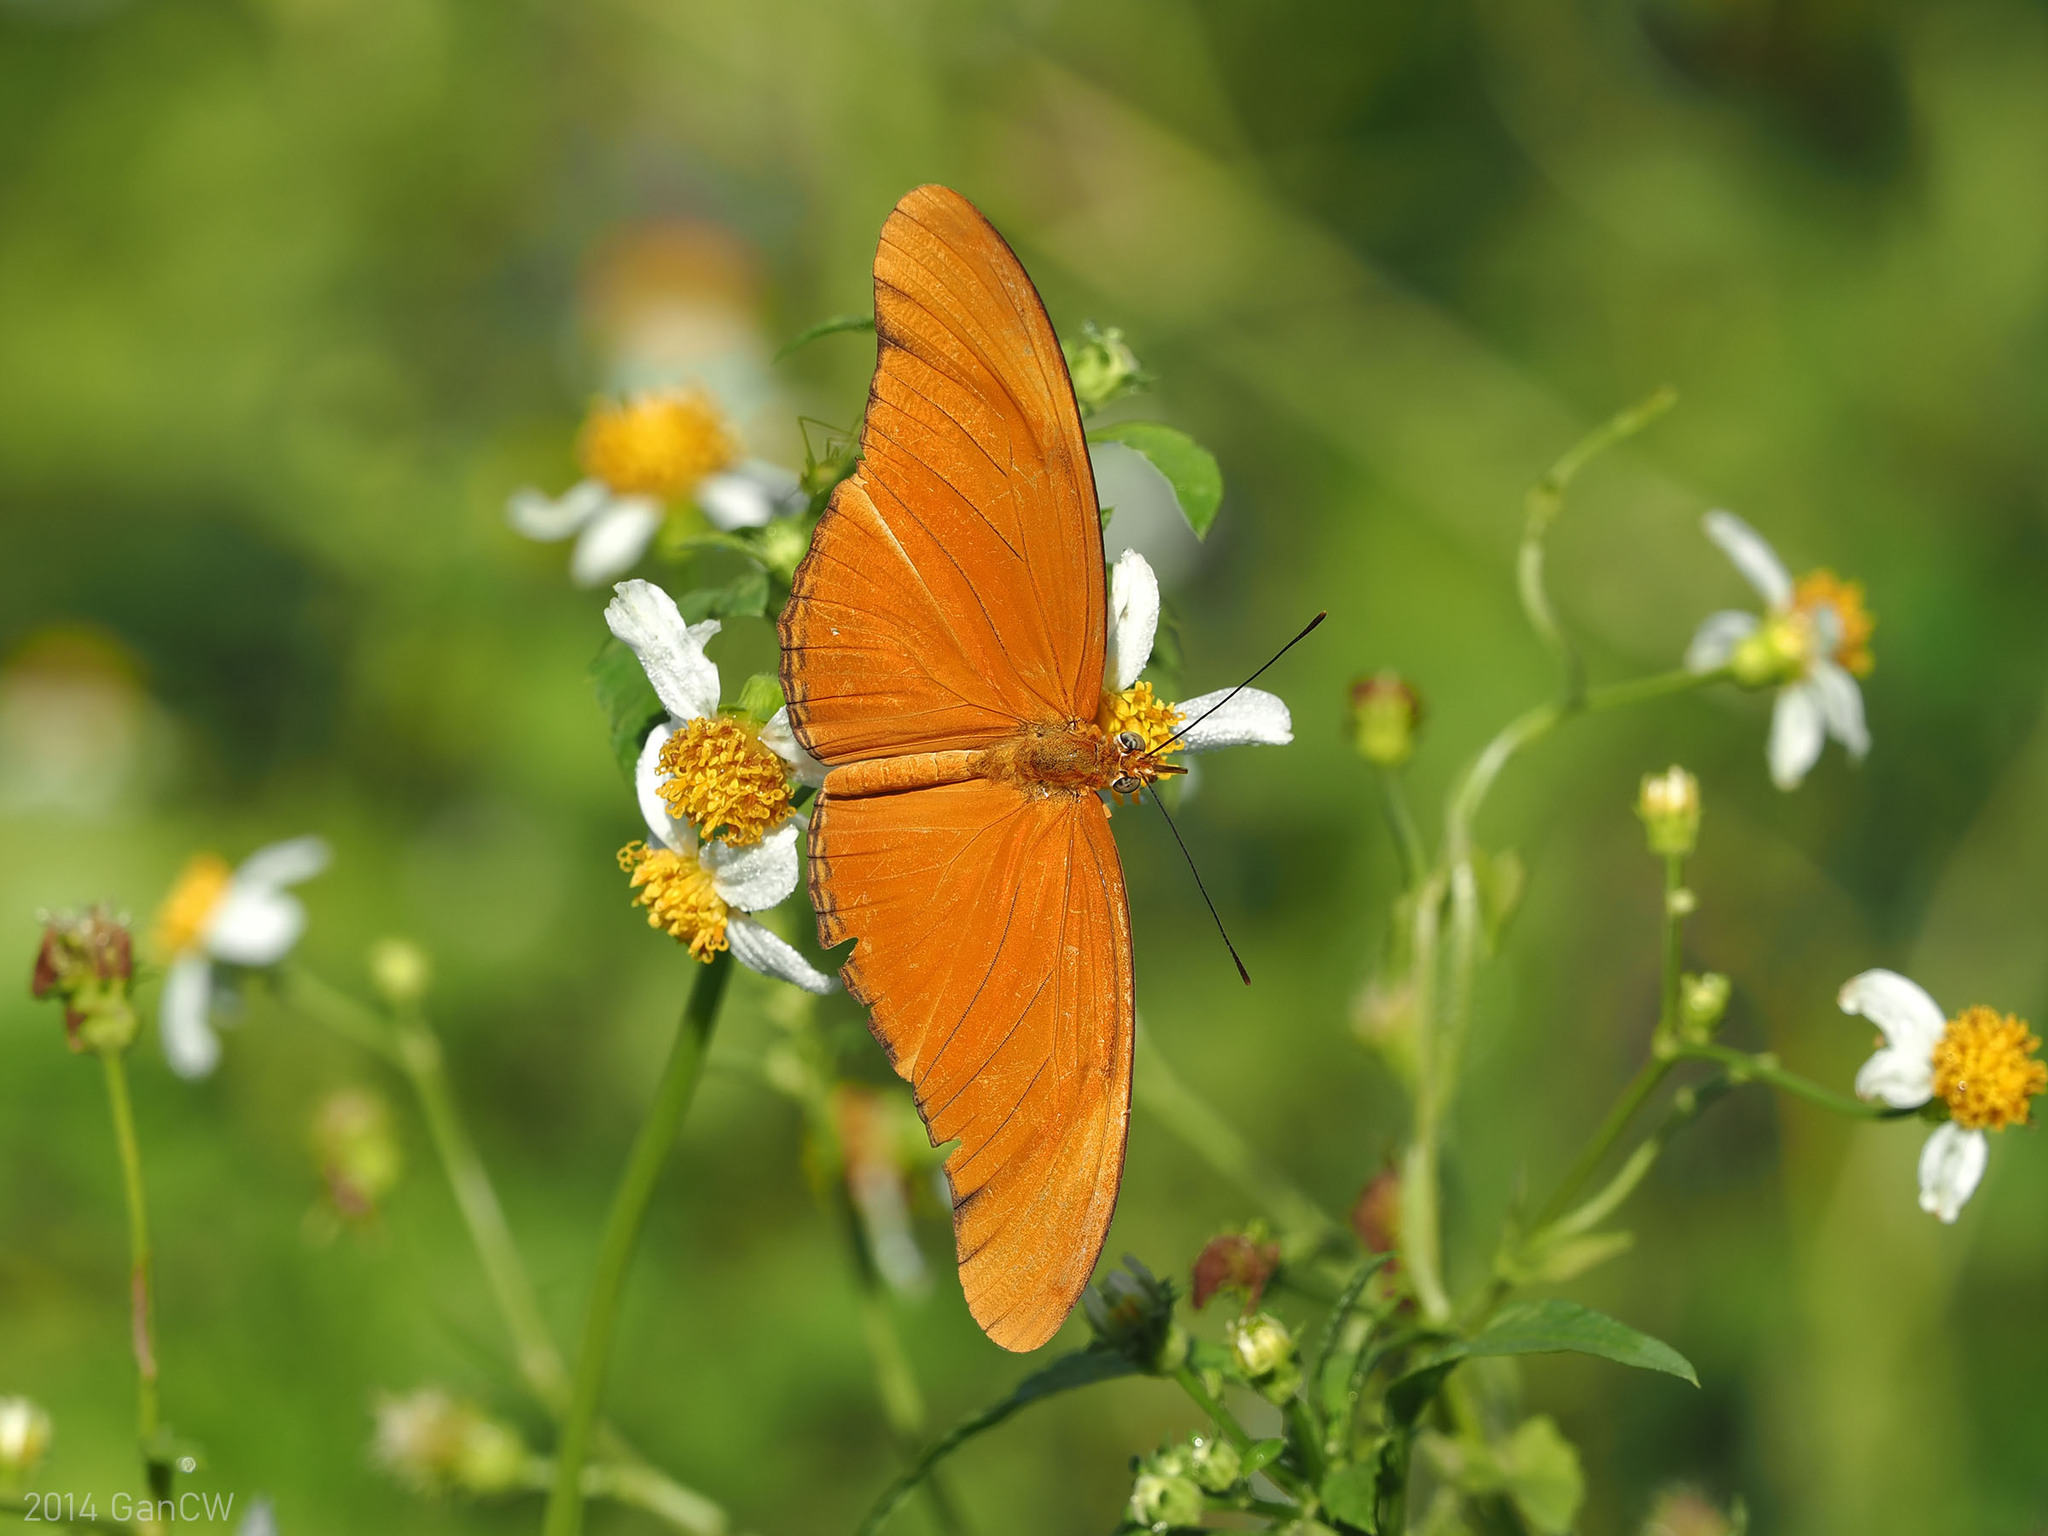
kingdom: Animalia
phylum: Arthropoda
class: Insecta
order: Lepidoptera
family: Nymphalidae
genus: Dryas
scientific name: Dryas iulia
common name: Flambeau
